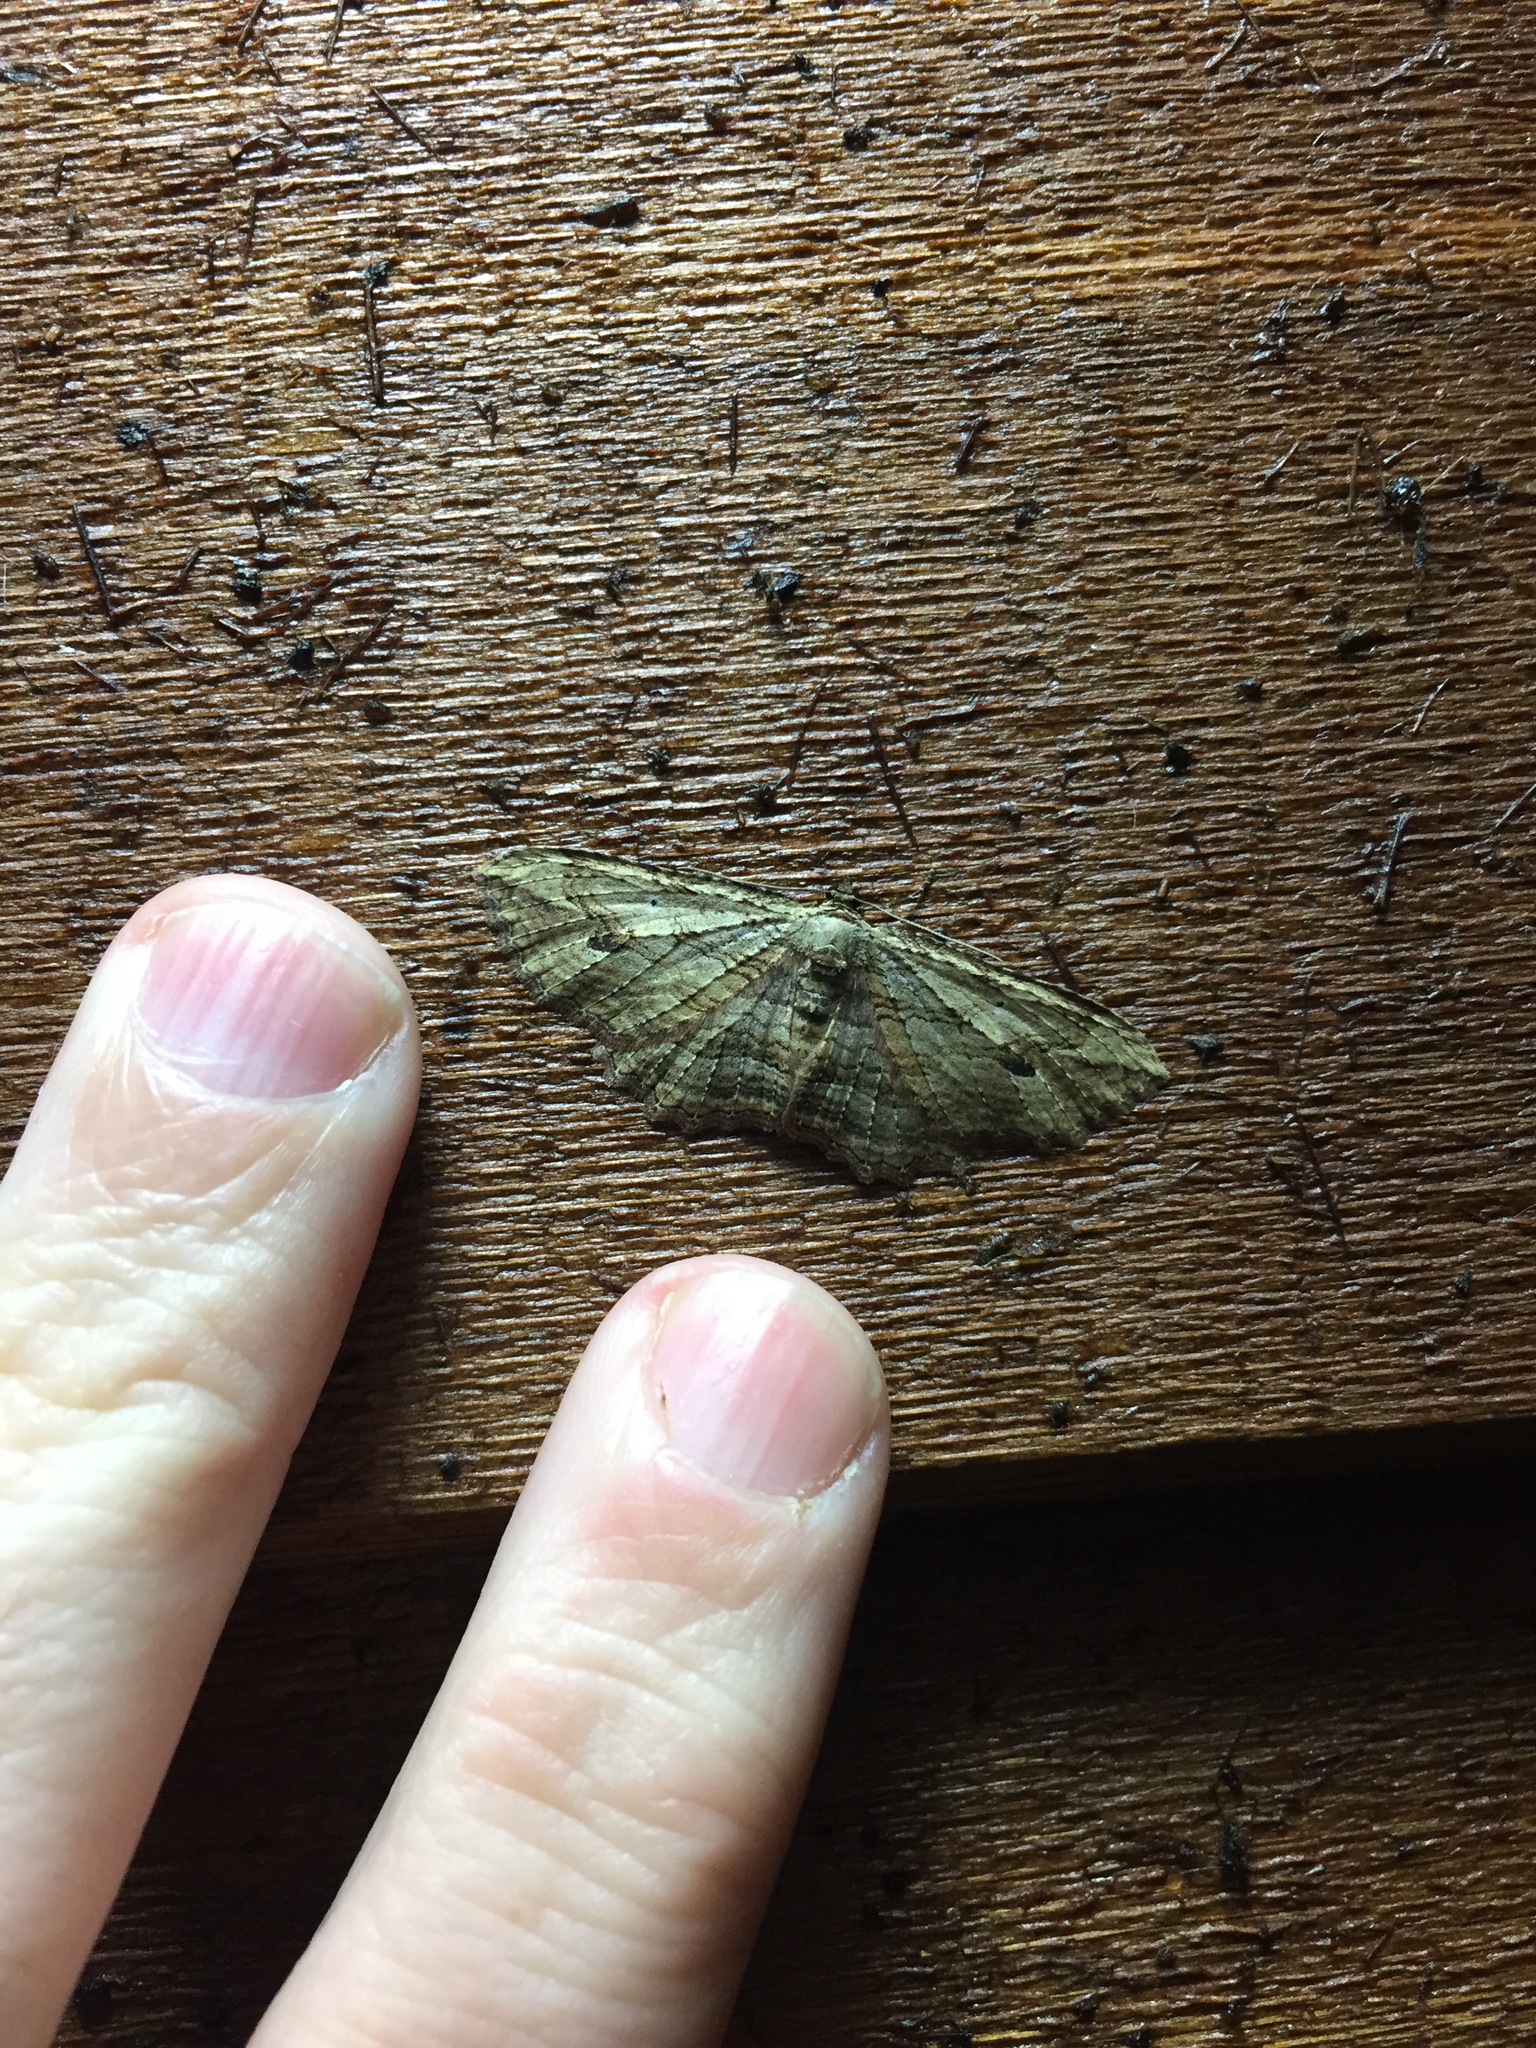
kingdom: Animalia
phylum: Arthropoda
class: Insecta
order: Lepidoptera
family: Geometridae
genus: Austrocidaria
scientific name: Austrocidaria bipartita
